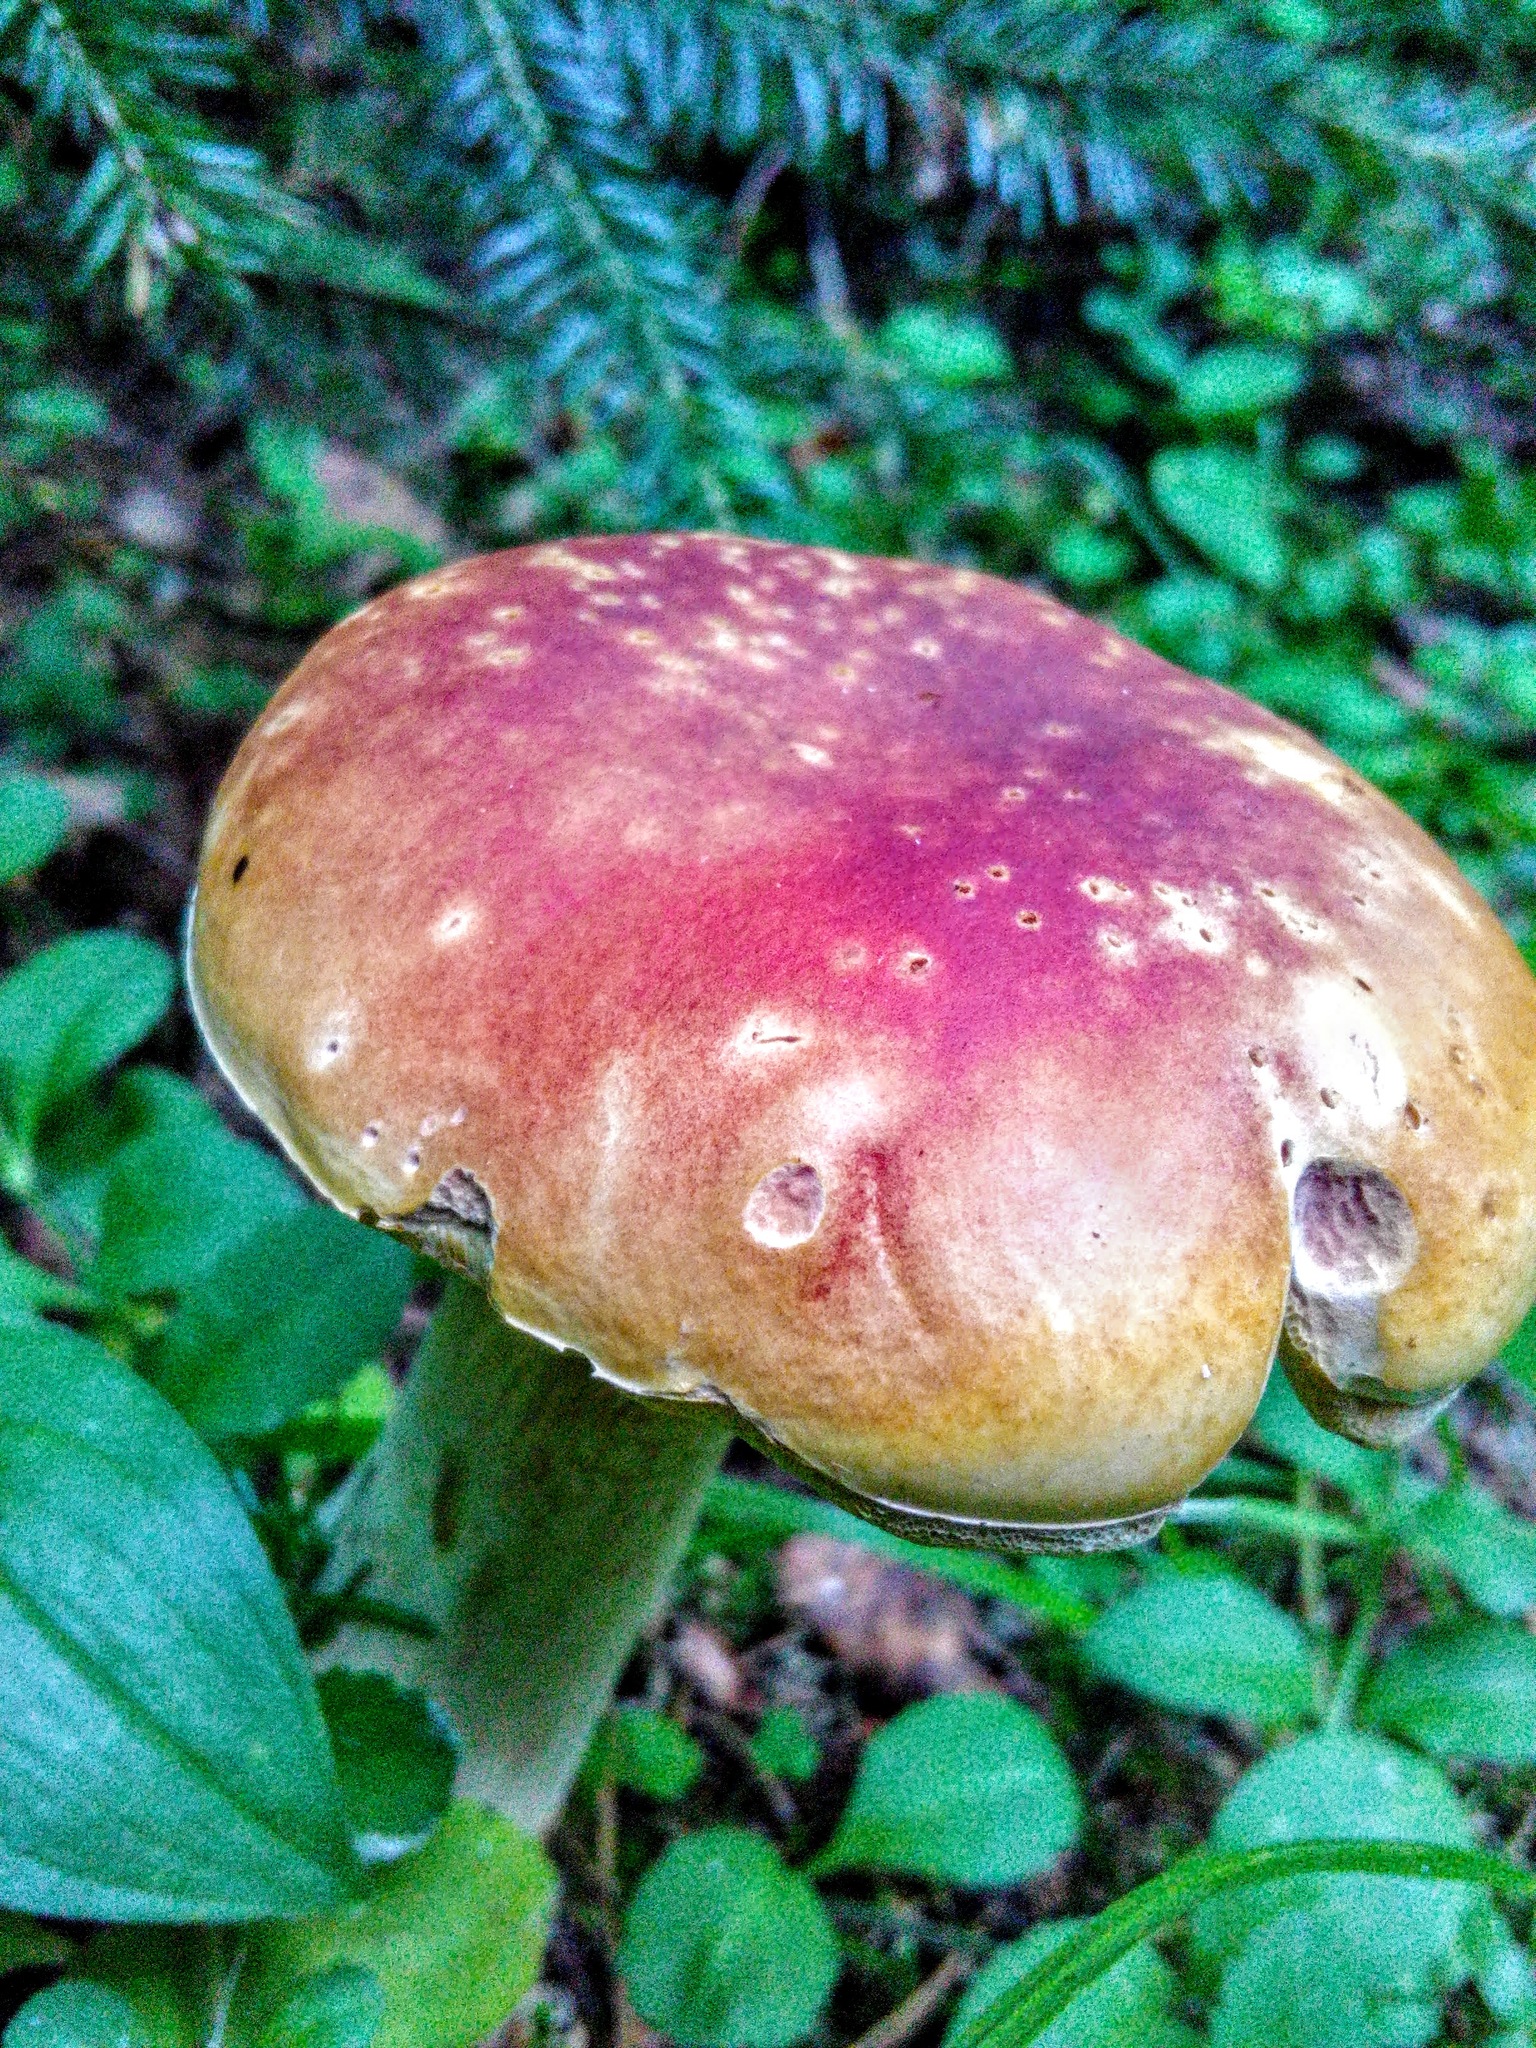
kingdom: Fungi
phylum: Basidiomycota
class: Agaricomycetes
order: Boletales
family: Boletaceae
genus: Boletus
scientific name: Boletus edulis
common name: Cep
